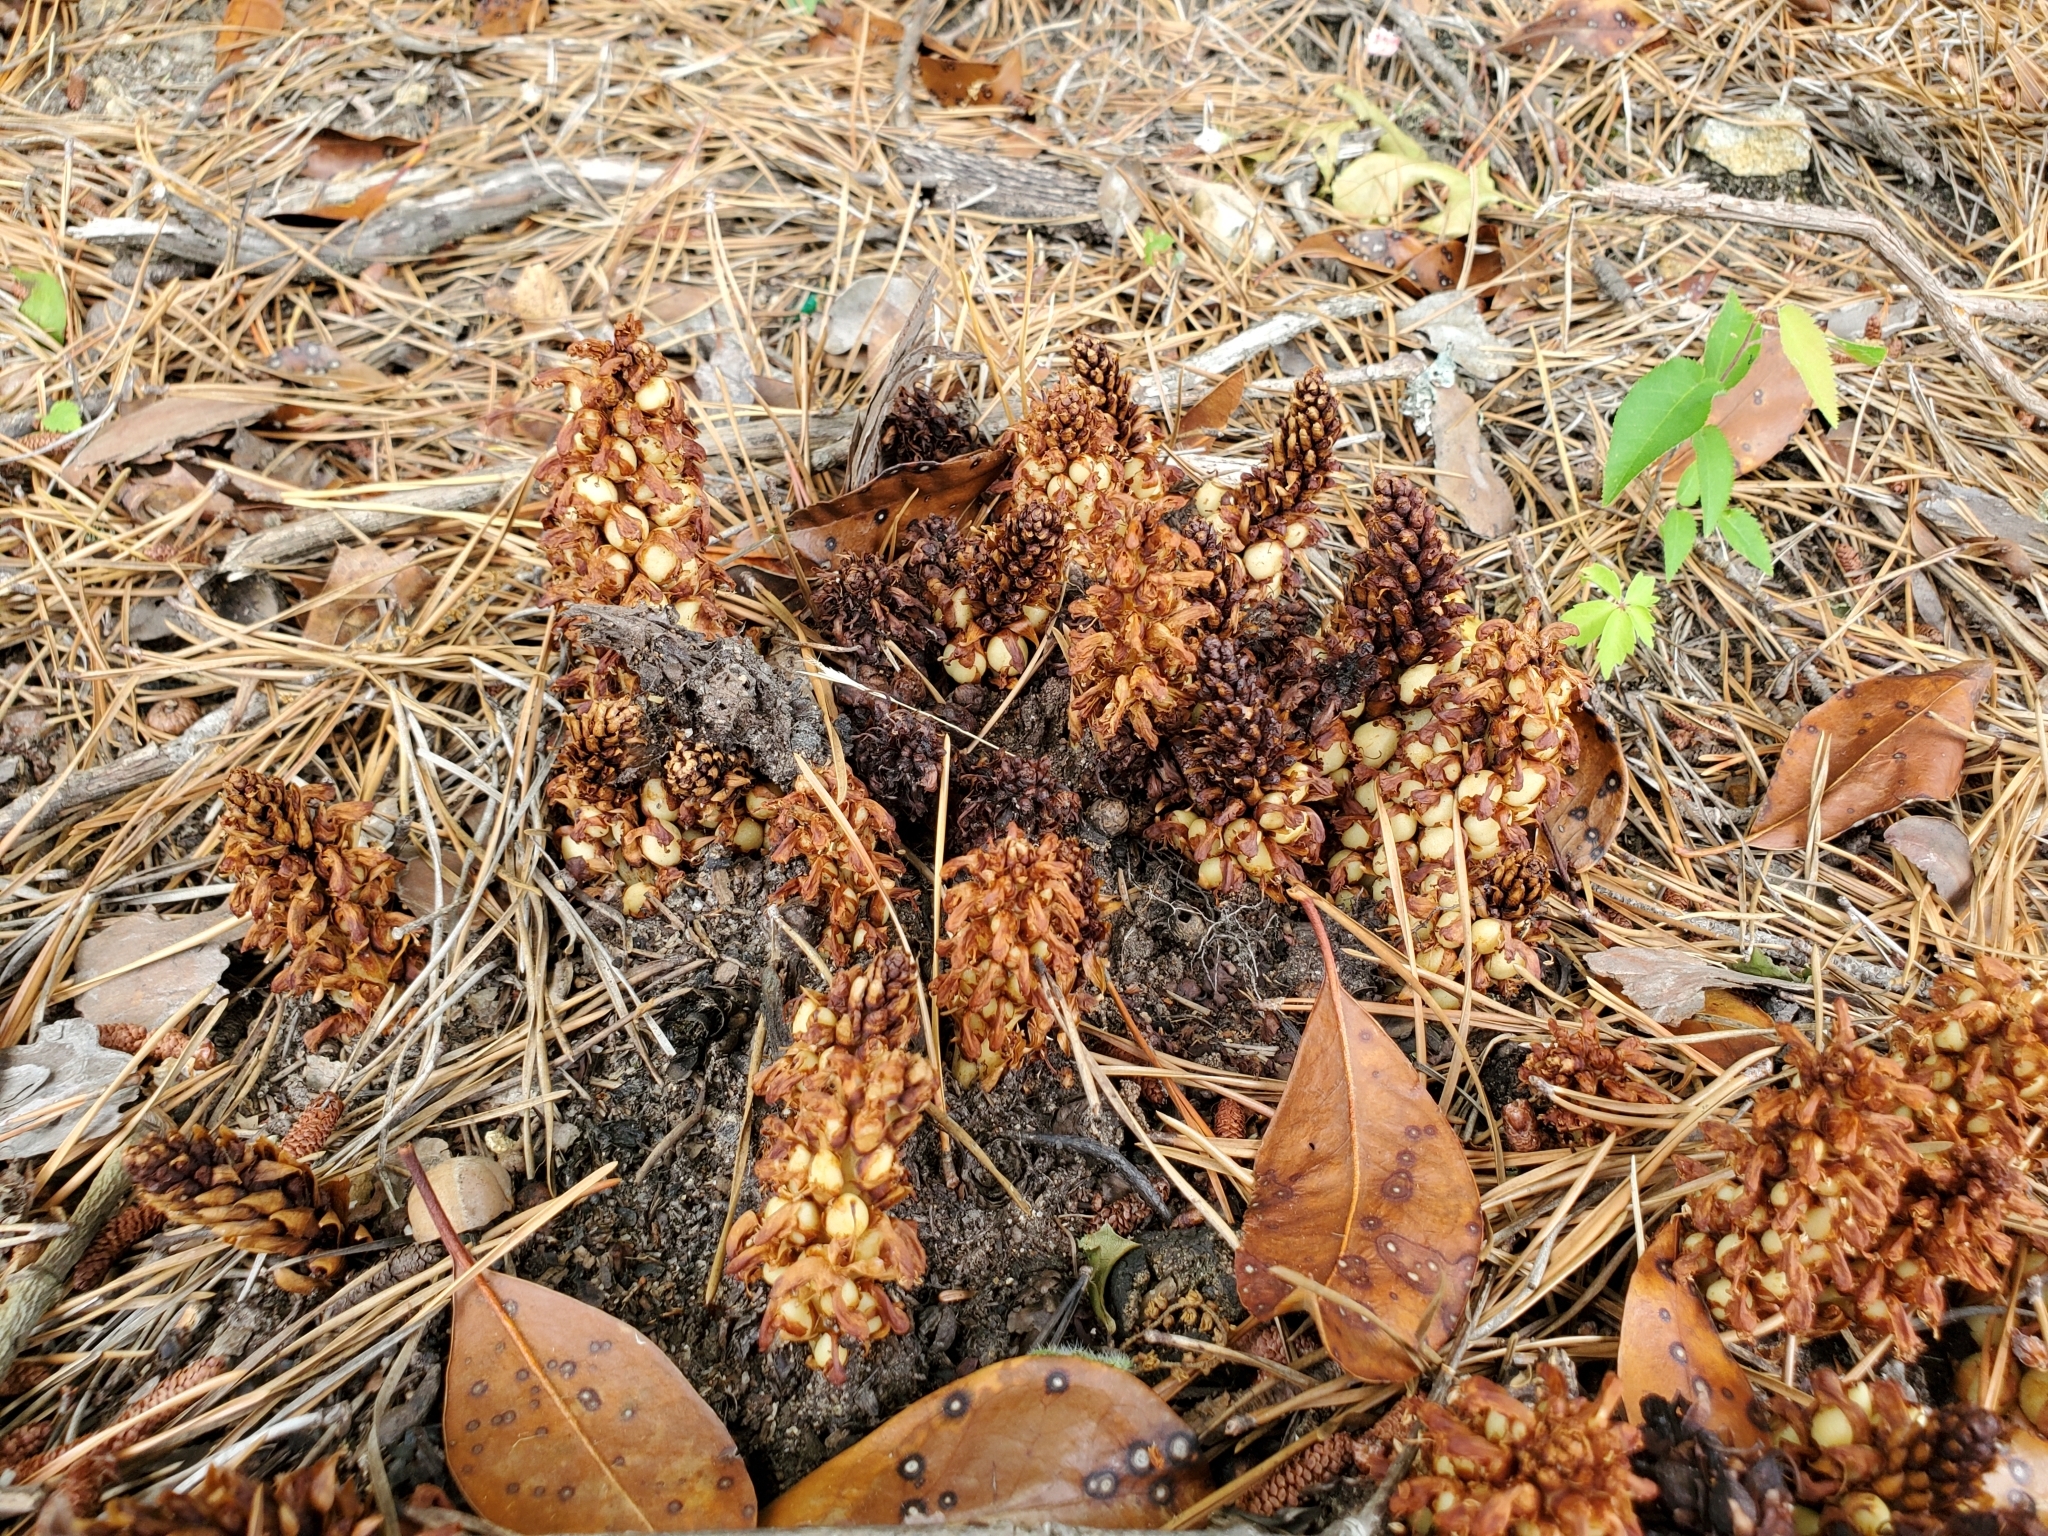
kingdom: Plantae
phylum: Tracheophyta
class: Magnoliopsida
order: Lamiales
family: Orobanchaceae
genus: Conopholis
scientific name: Conopholis americana
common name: American cancer-root
